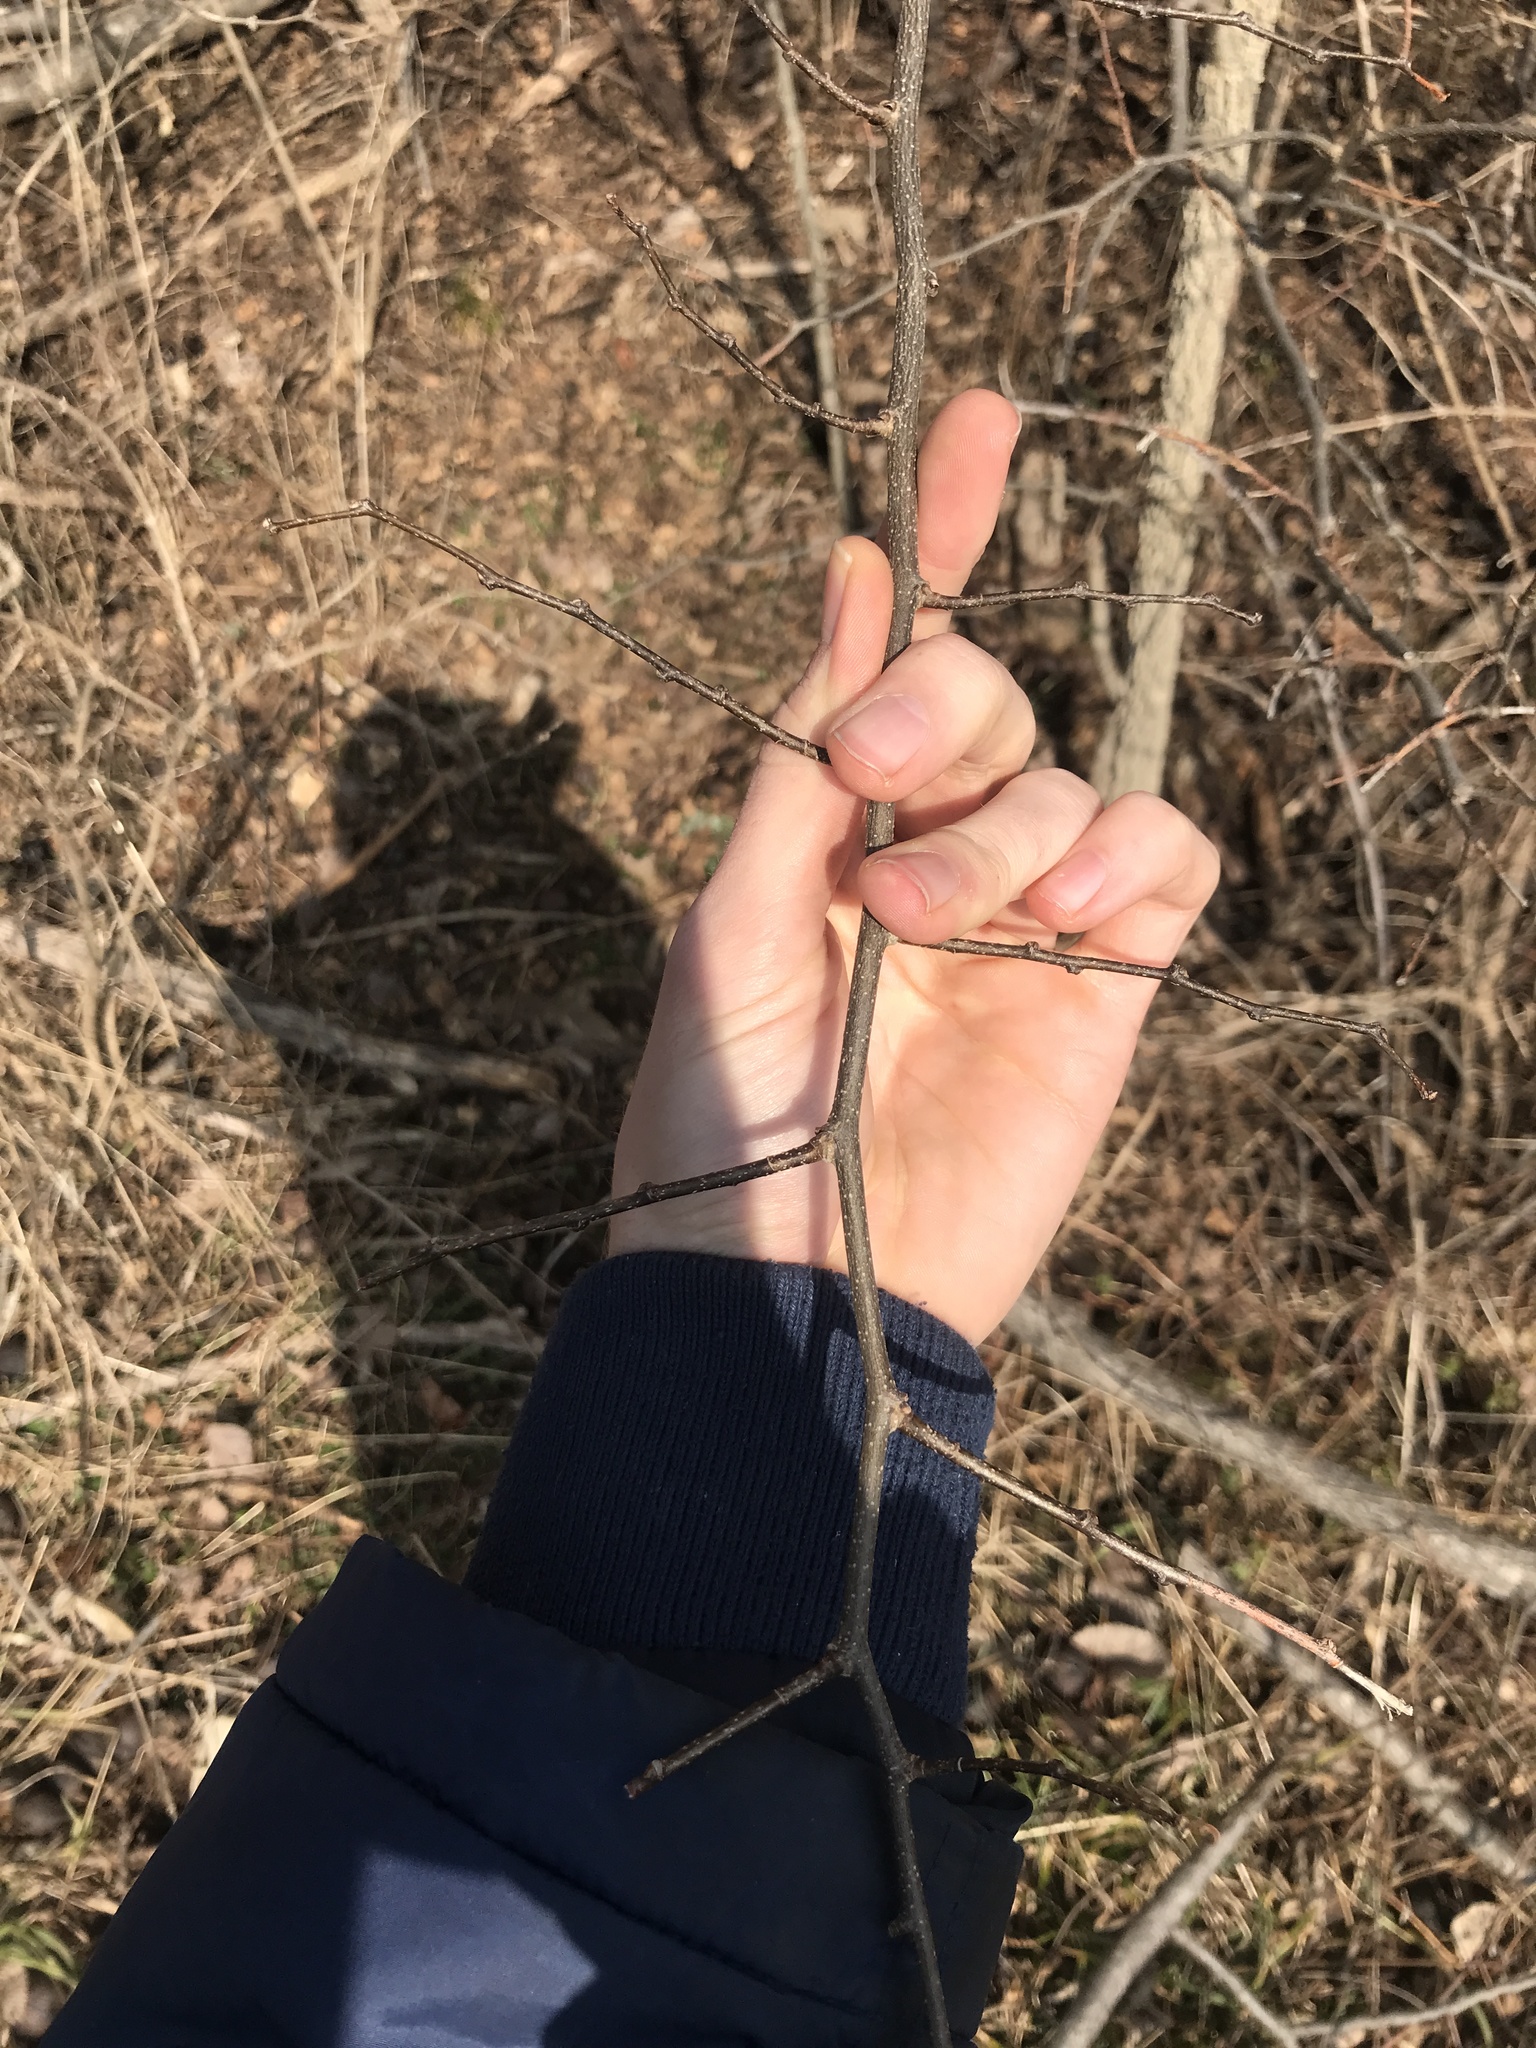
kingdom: Plantae
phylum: Tracheophyta
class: Magnoliopsida
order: Rosales
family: Cannabaceae
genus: Celtis
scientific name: Celtis occidentalis
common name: Common hackberry
